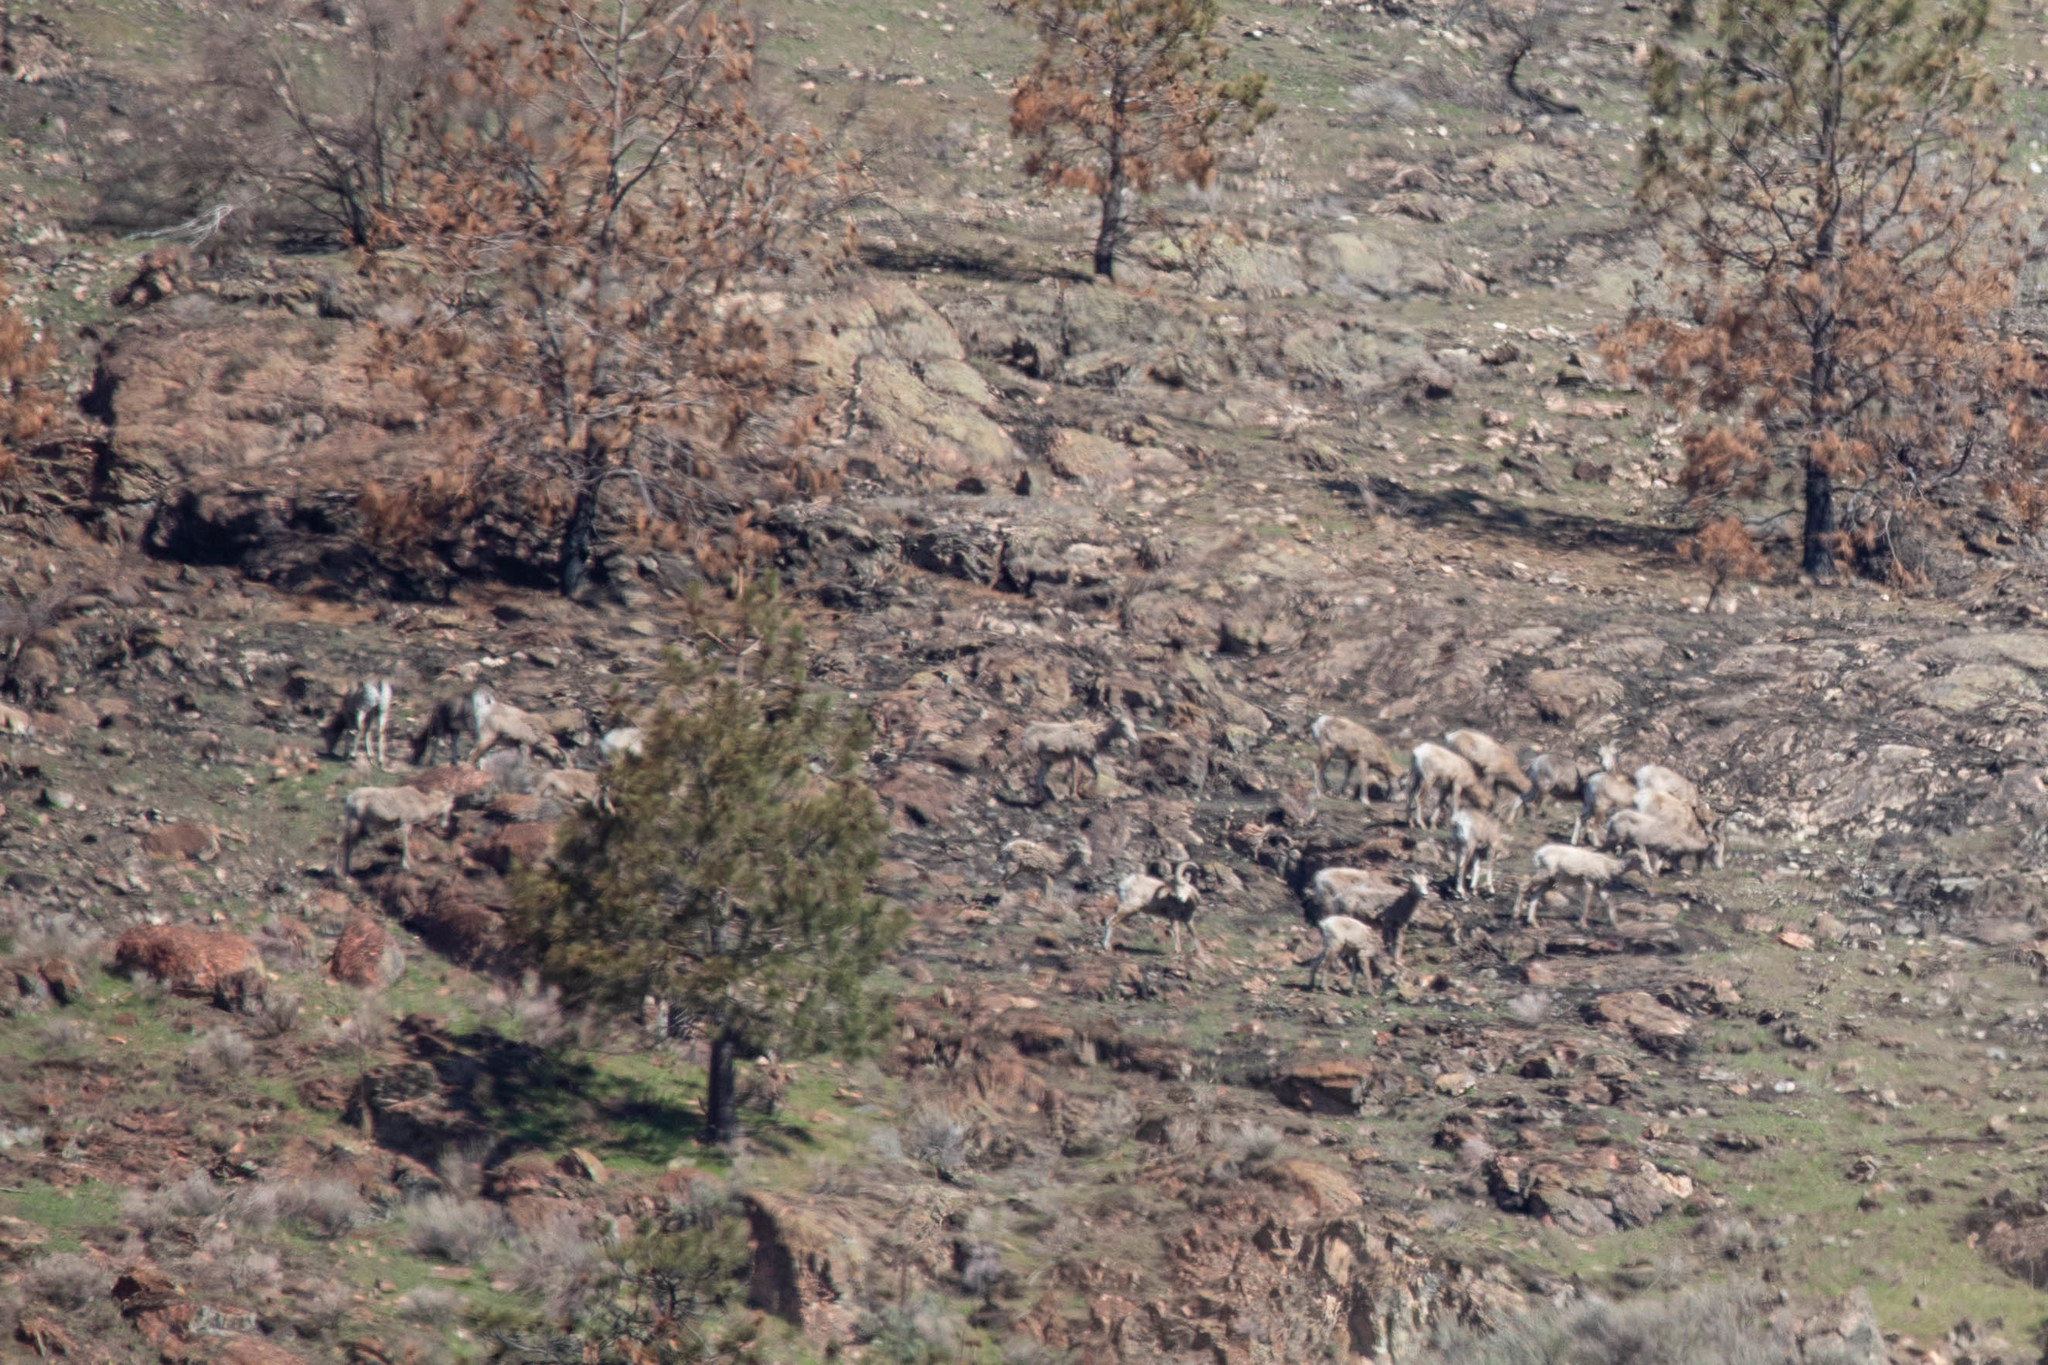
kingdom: Animalia
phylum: Chordata
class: Mammalia
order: Artiodactyla
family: Bovidae
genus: Ovis
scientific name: Ovis canadensis
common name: Bighorn sheep
